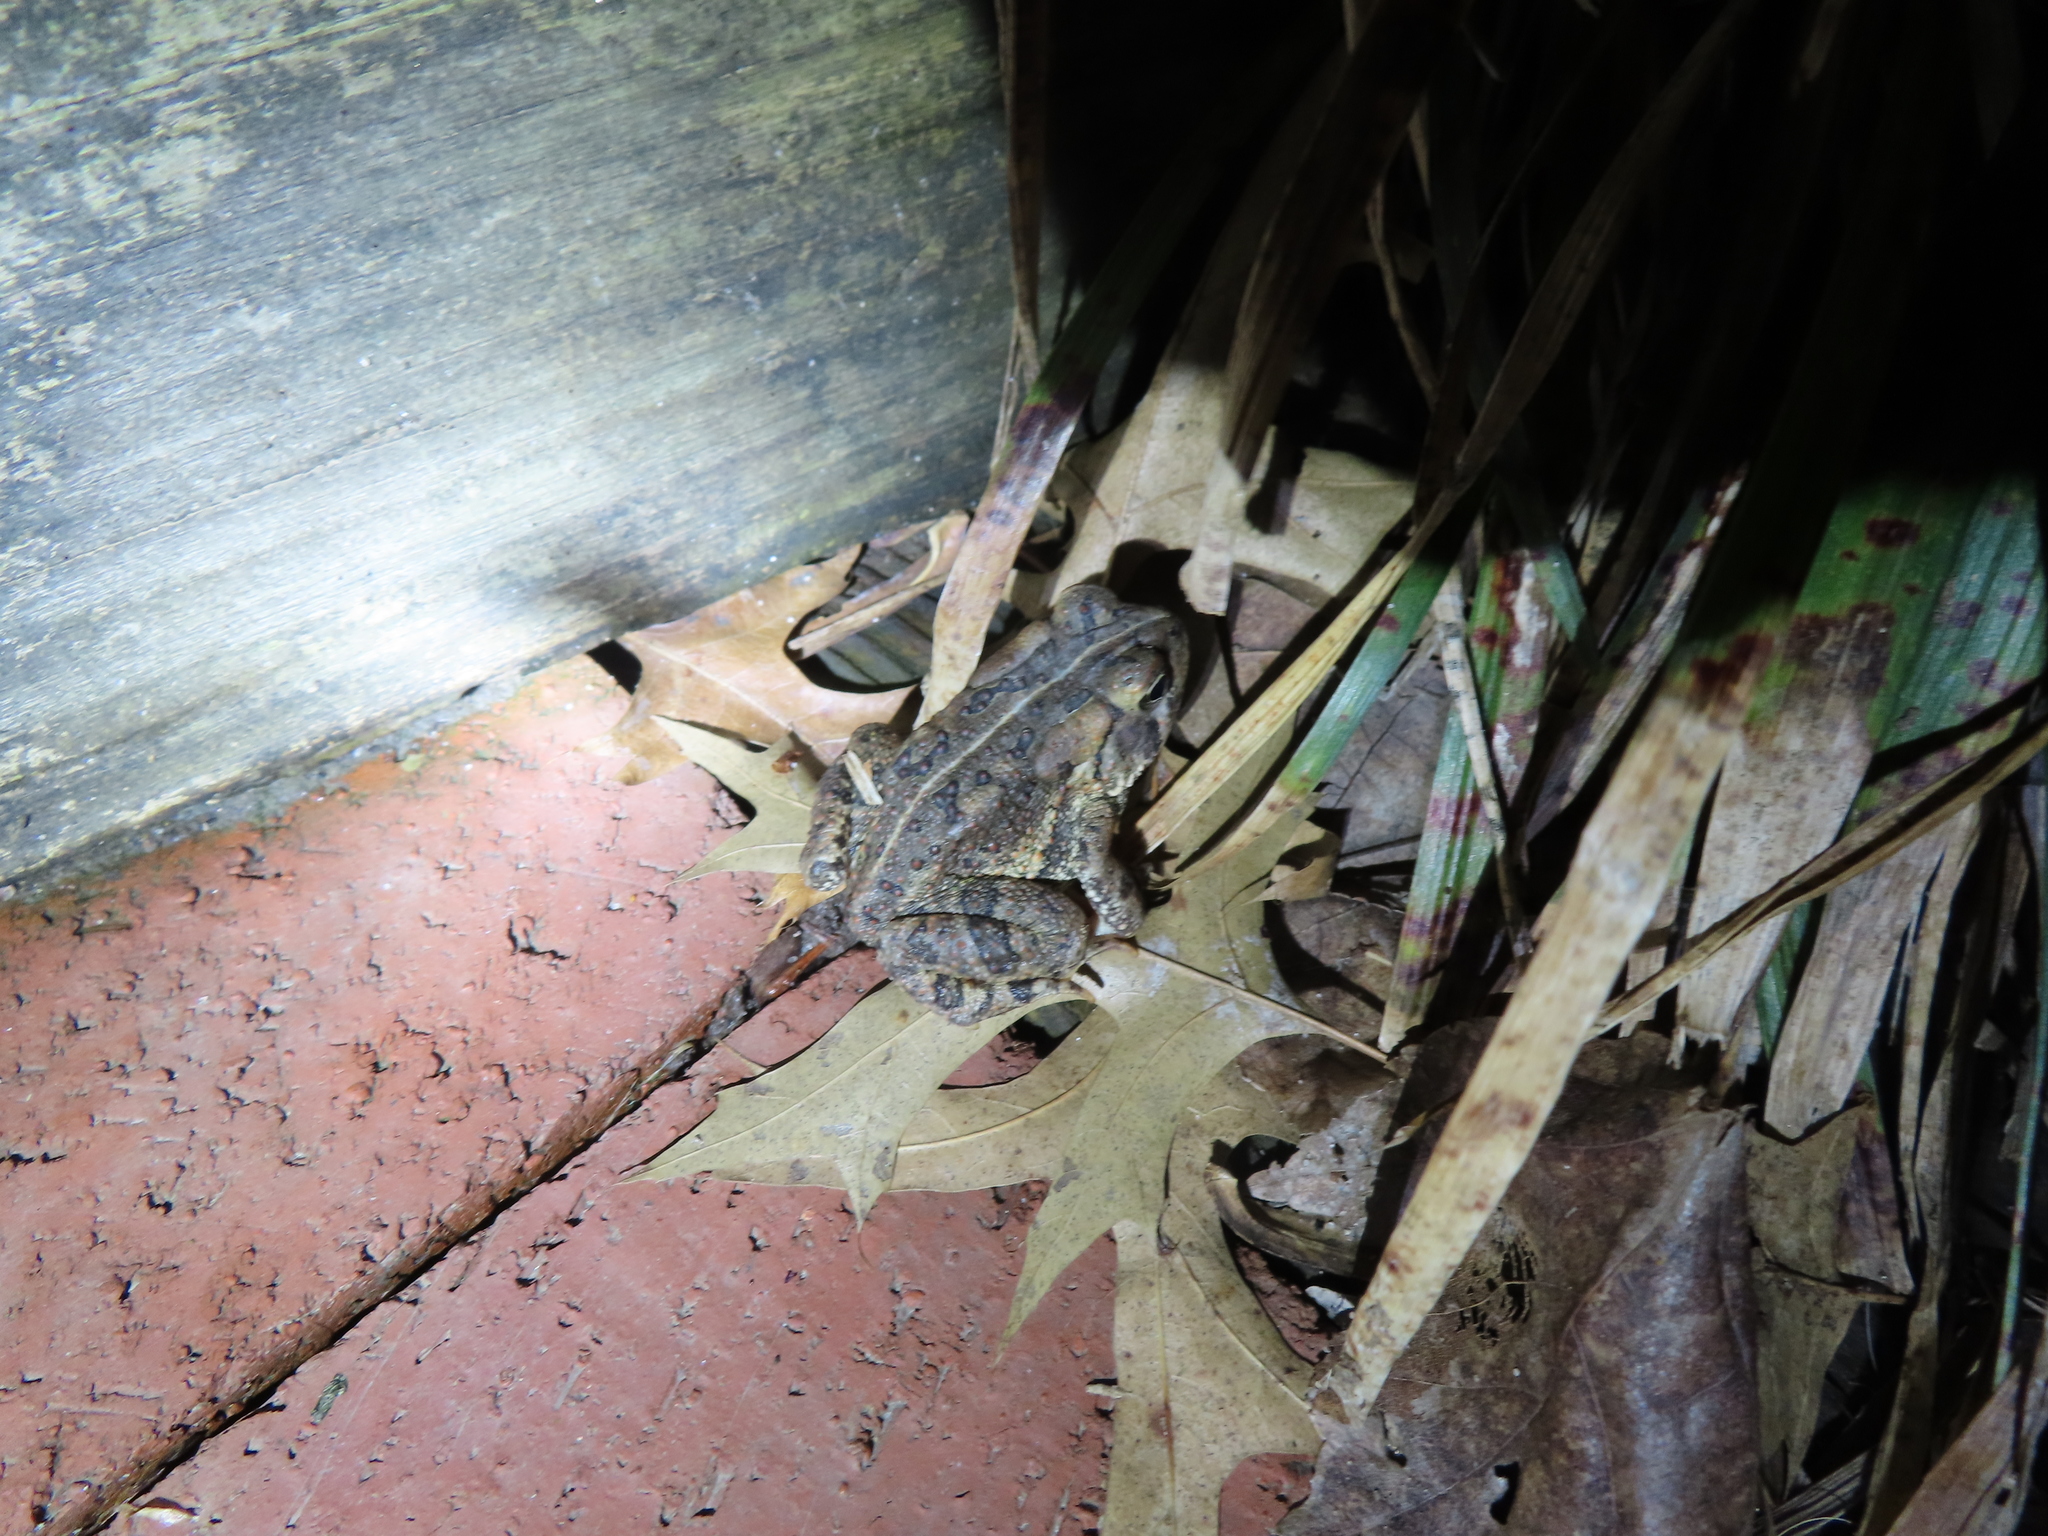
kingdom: Animalia
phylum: Chordata
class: Amphibia
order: Anura
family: Bufonidae
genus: Anaxyrus
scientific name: Anaxyrus fowleri
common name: Fowler's toad
